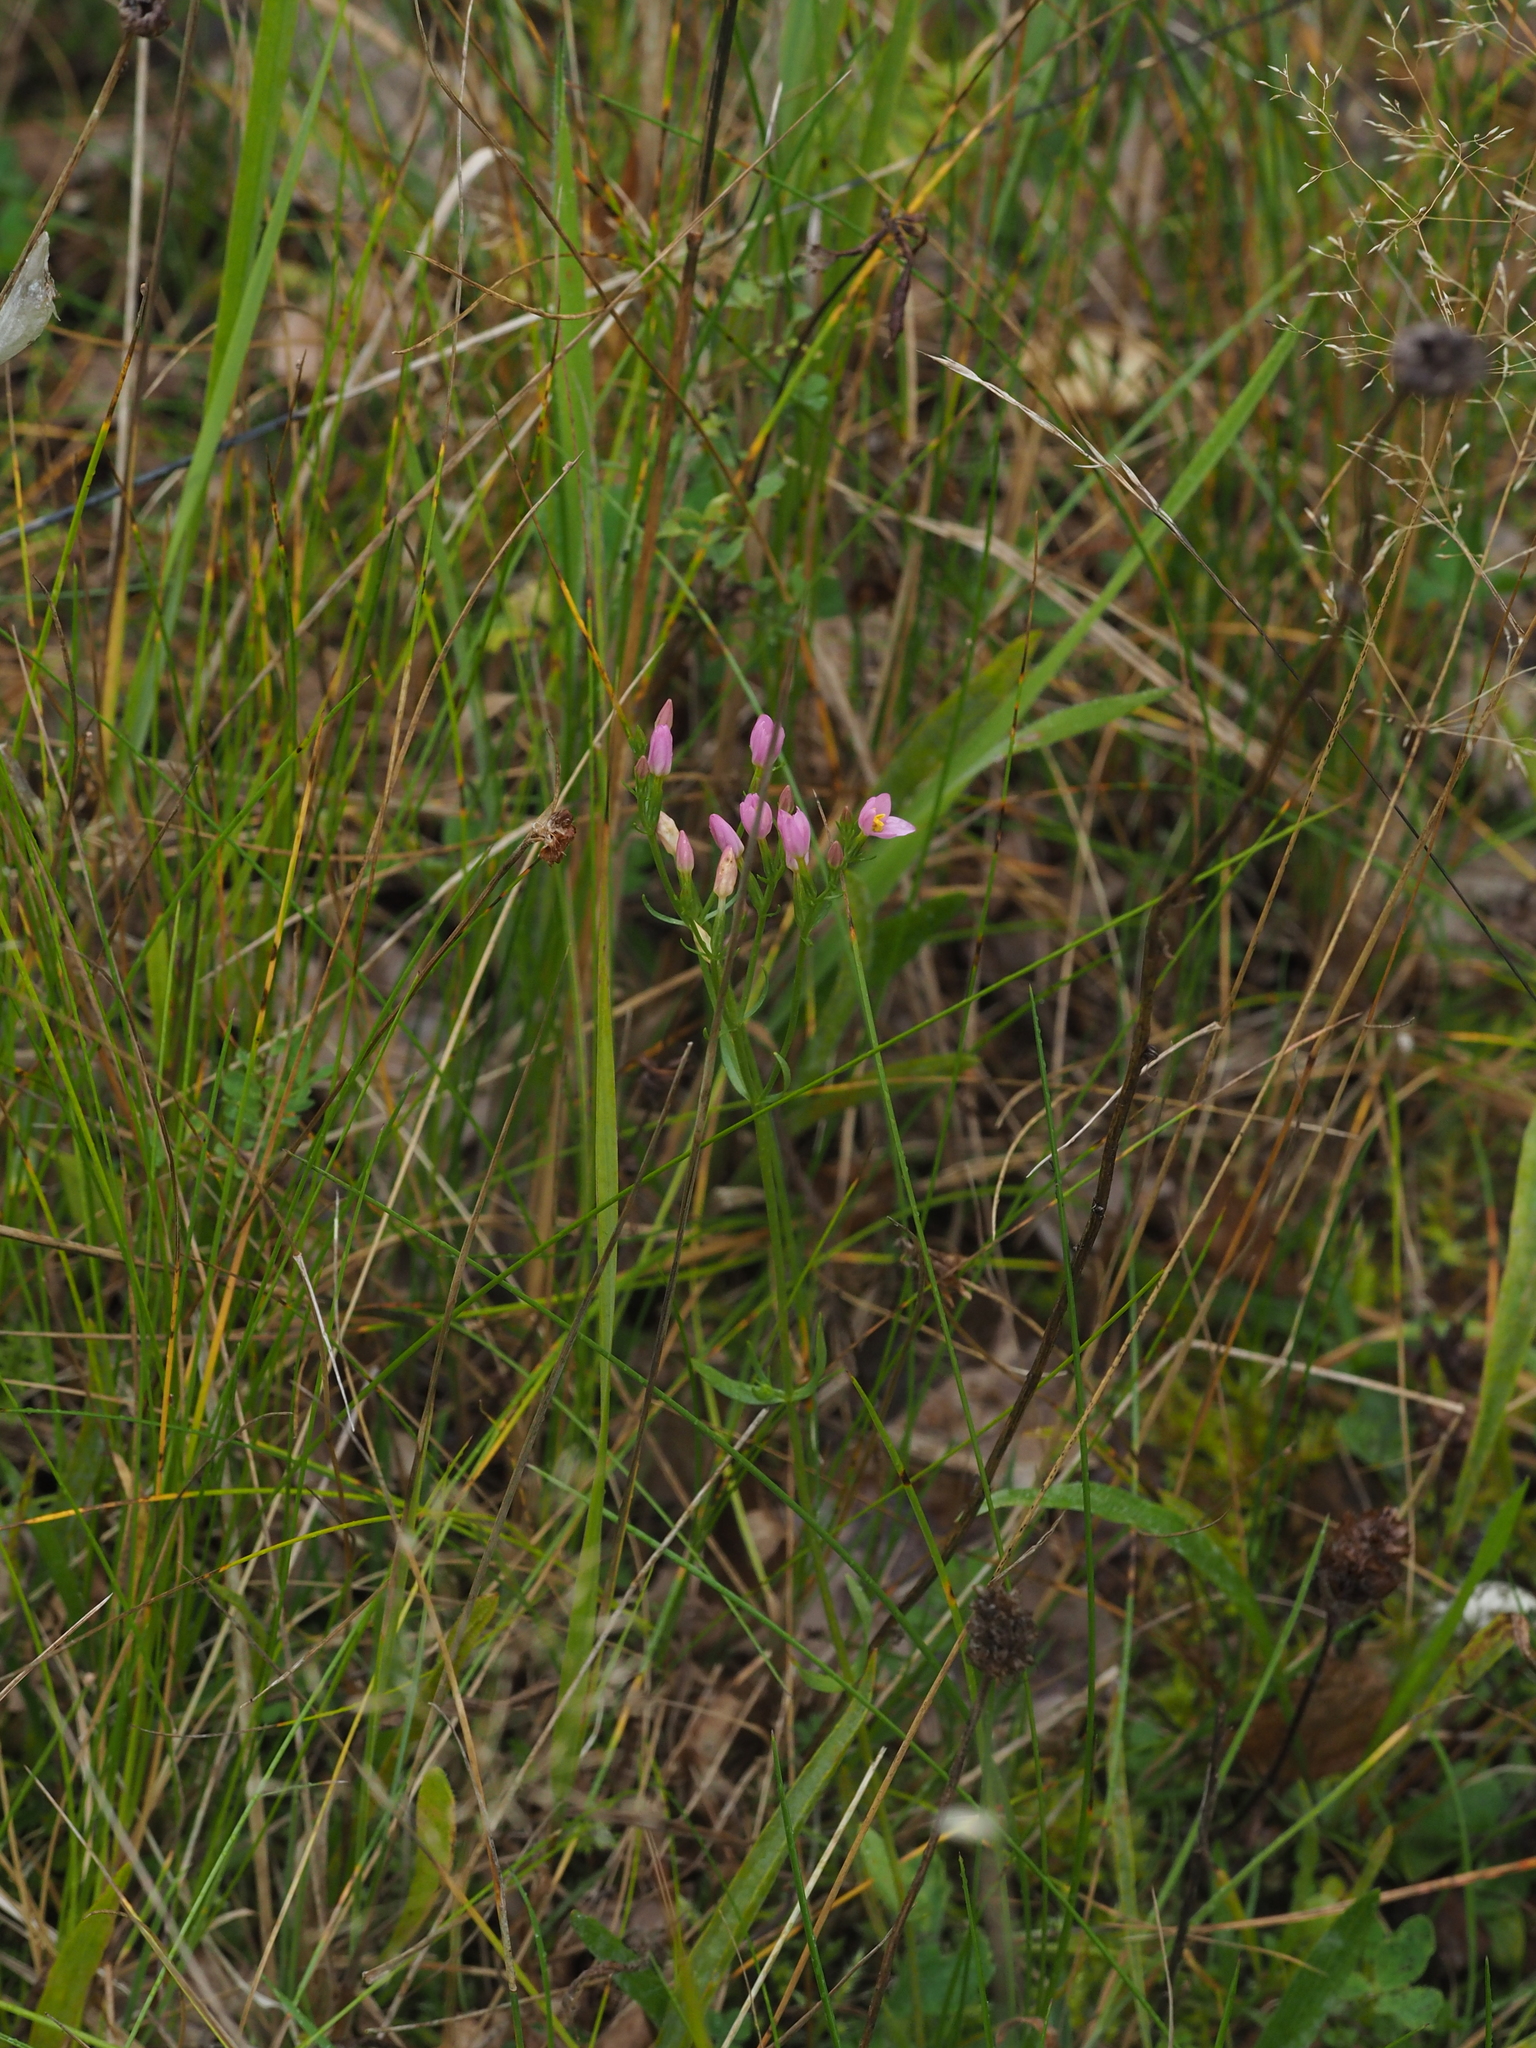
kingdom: Plantae
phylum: Tracheophyta
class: Magnoliopsida
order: Gentianales
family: Gentianaceae
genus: Centaurium
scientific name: Centaurium erythraea
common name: Common centaury
